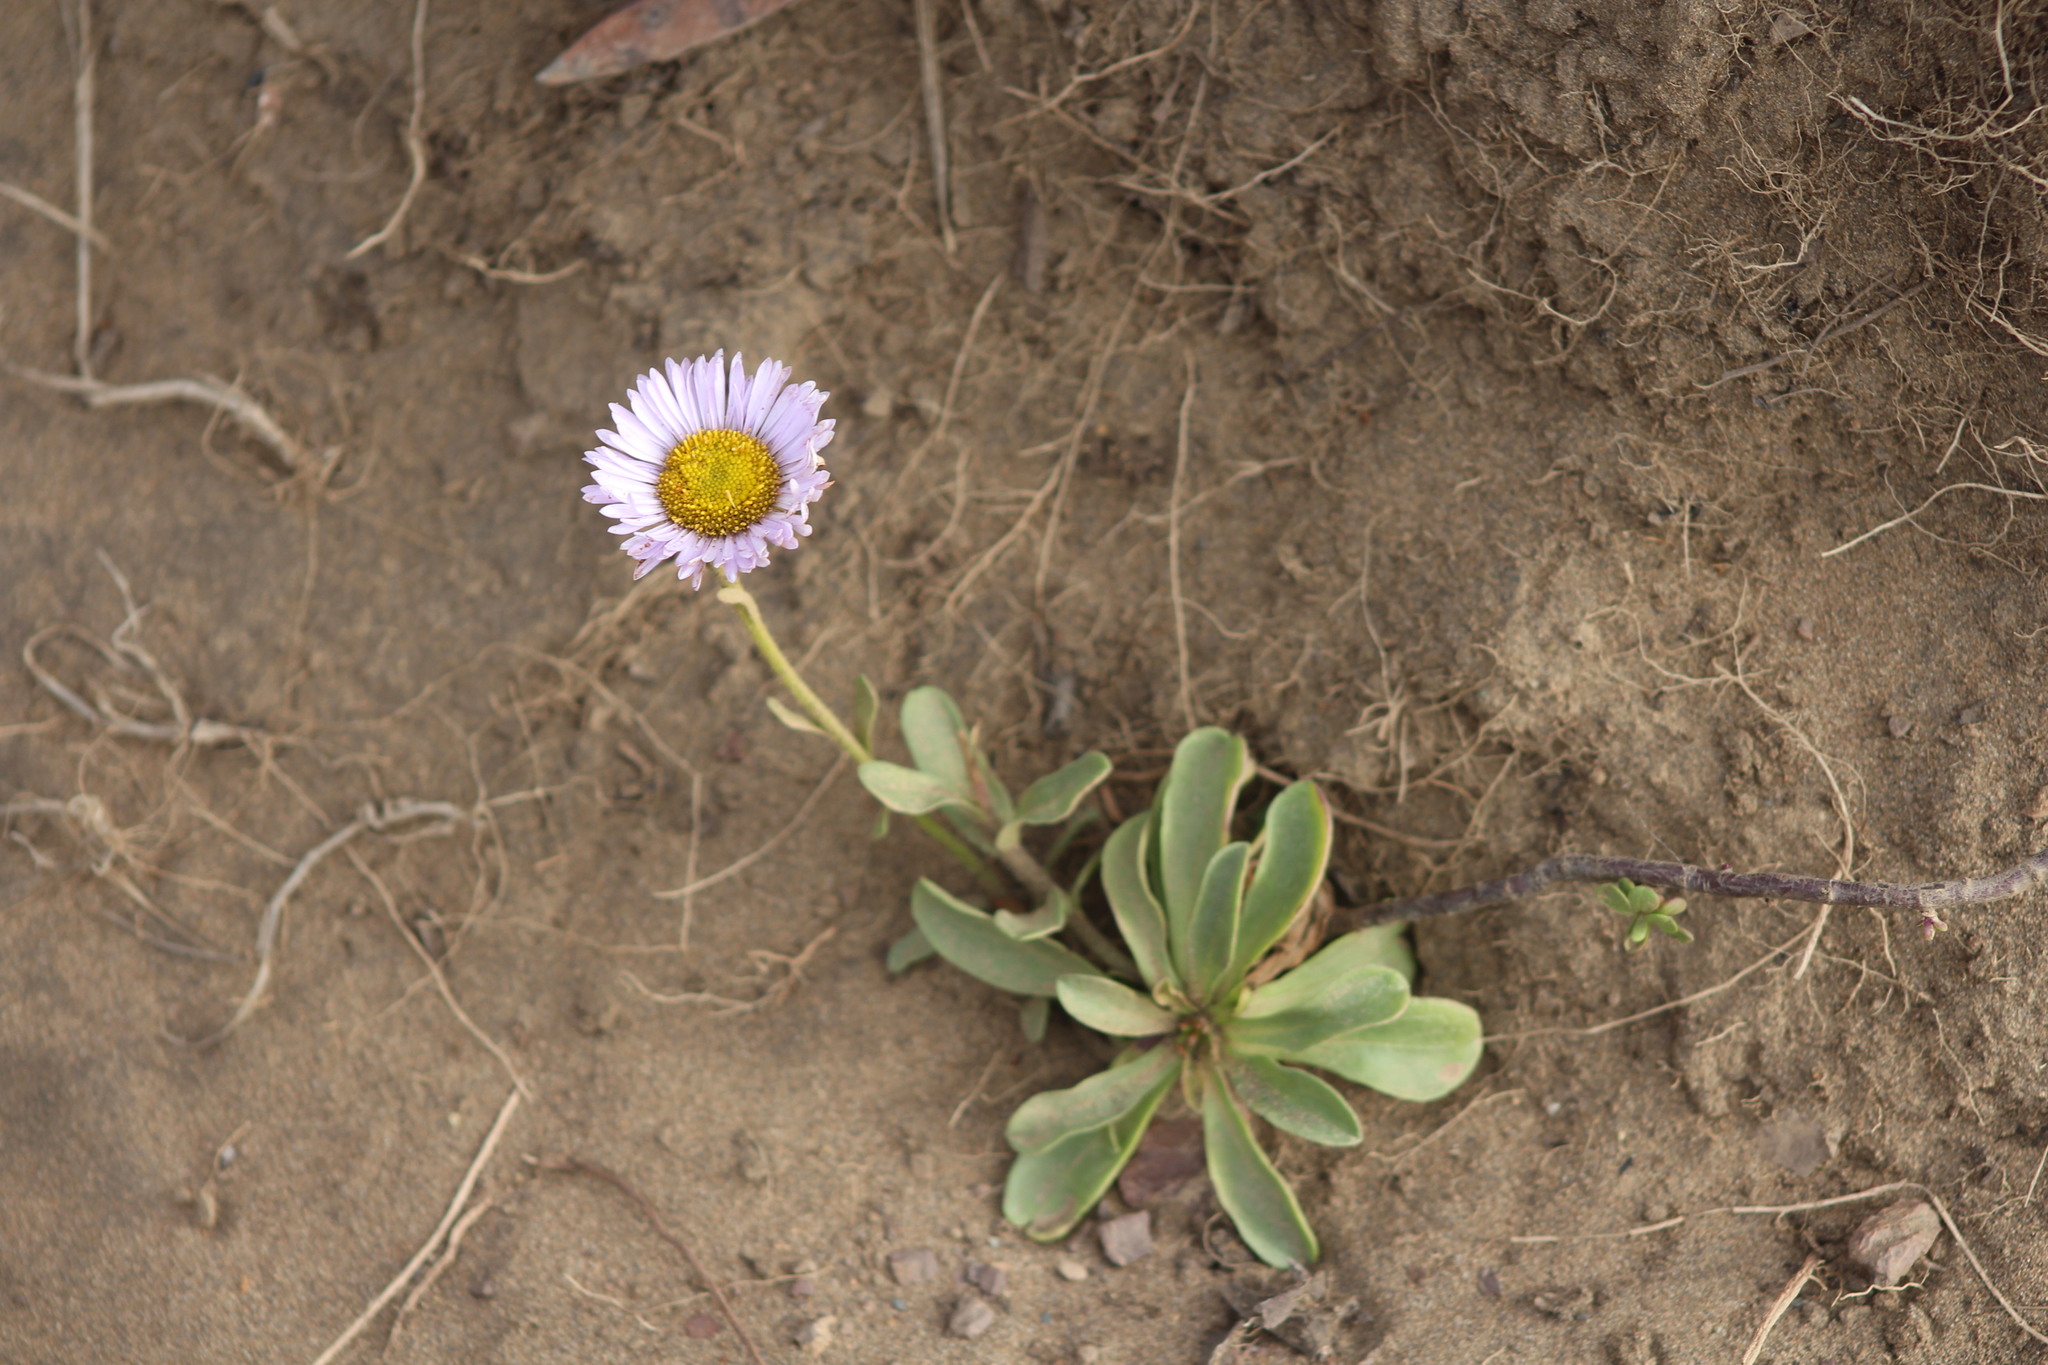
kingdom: Plantae
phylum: Tracheophyta
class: Magnoliopsida
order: Asterales
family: Asteraceae
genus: Erigeron
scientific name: Erigeron glaucus
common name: Seaside daisy
